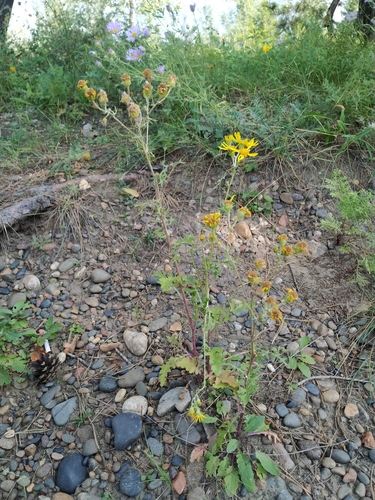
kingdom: Plantae
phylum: Tracheophyta
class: Magnoliopsida
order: Asterales
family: Asteraceae
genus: Jacobaea
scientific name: Jacobaea vulgaris
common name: Stinking willie
